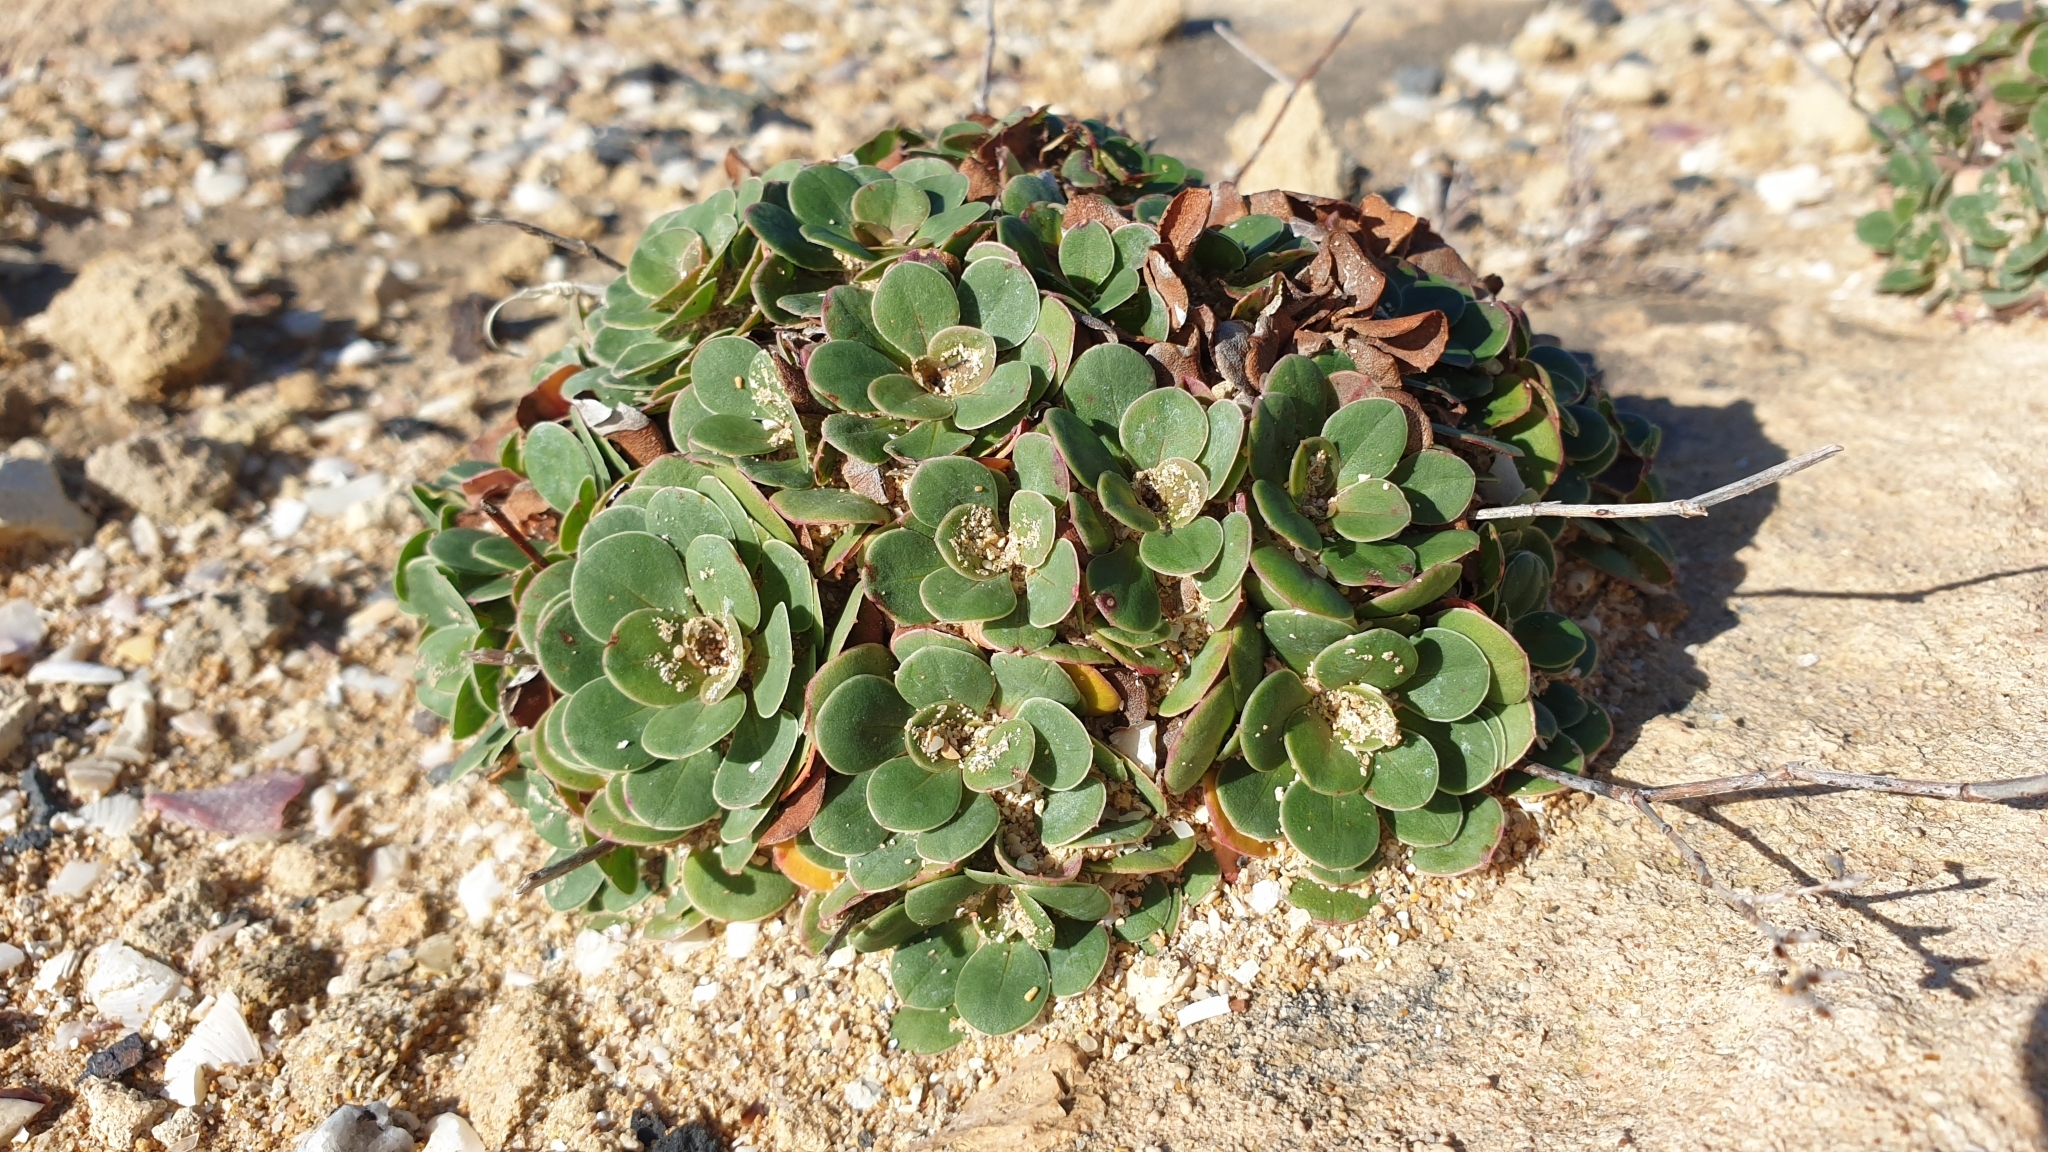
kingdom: Plantae
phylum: Tracheophyta
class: Magnoliopsida
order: Caryophyllales
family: Plumbaginaceae
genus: Limonium
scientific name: Limonium companyonis
